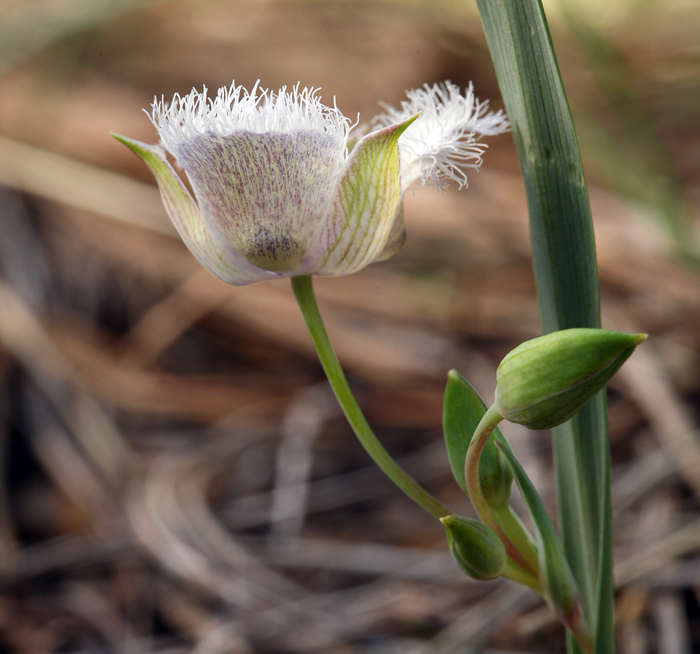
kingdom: Plantae
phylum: Tracheophyta
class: Liliopsida
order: Liliales
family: Liliaceae
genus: Calochortus
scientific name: Calochortus coeruleus
